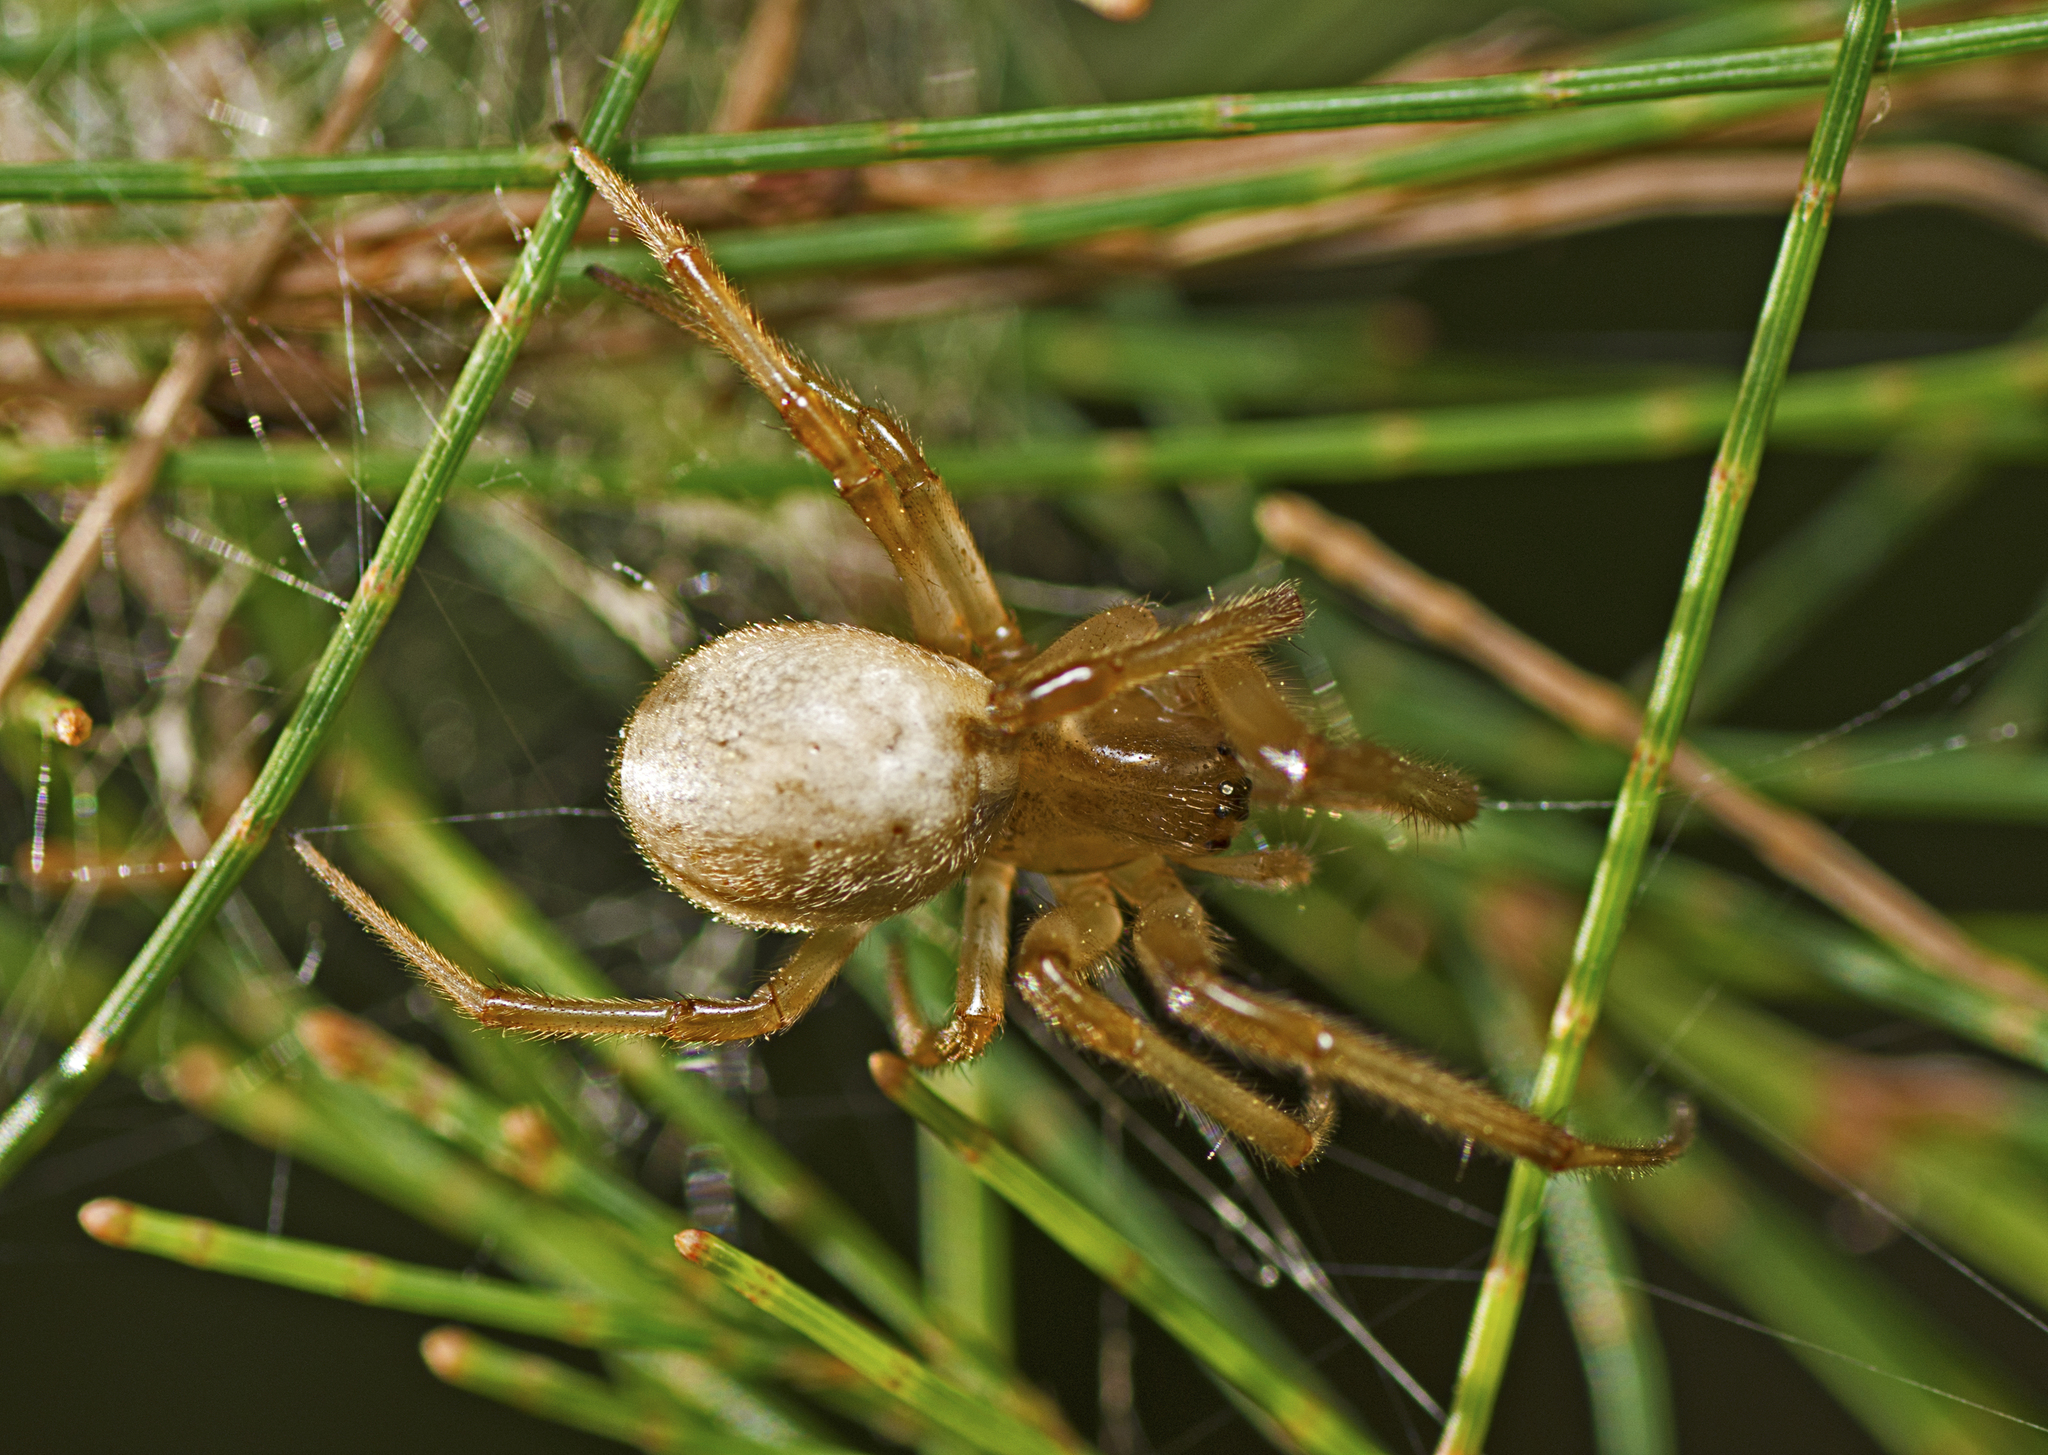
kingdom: Animalia
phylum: Arthropoda
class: Arachnida
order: Araneae
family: Araneidae
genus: Deliochus
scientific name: Deliochus idoneus
